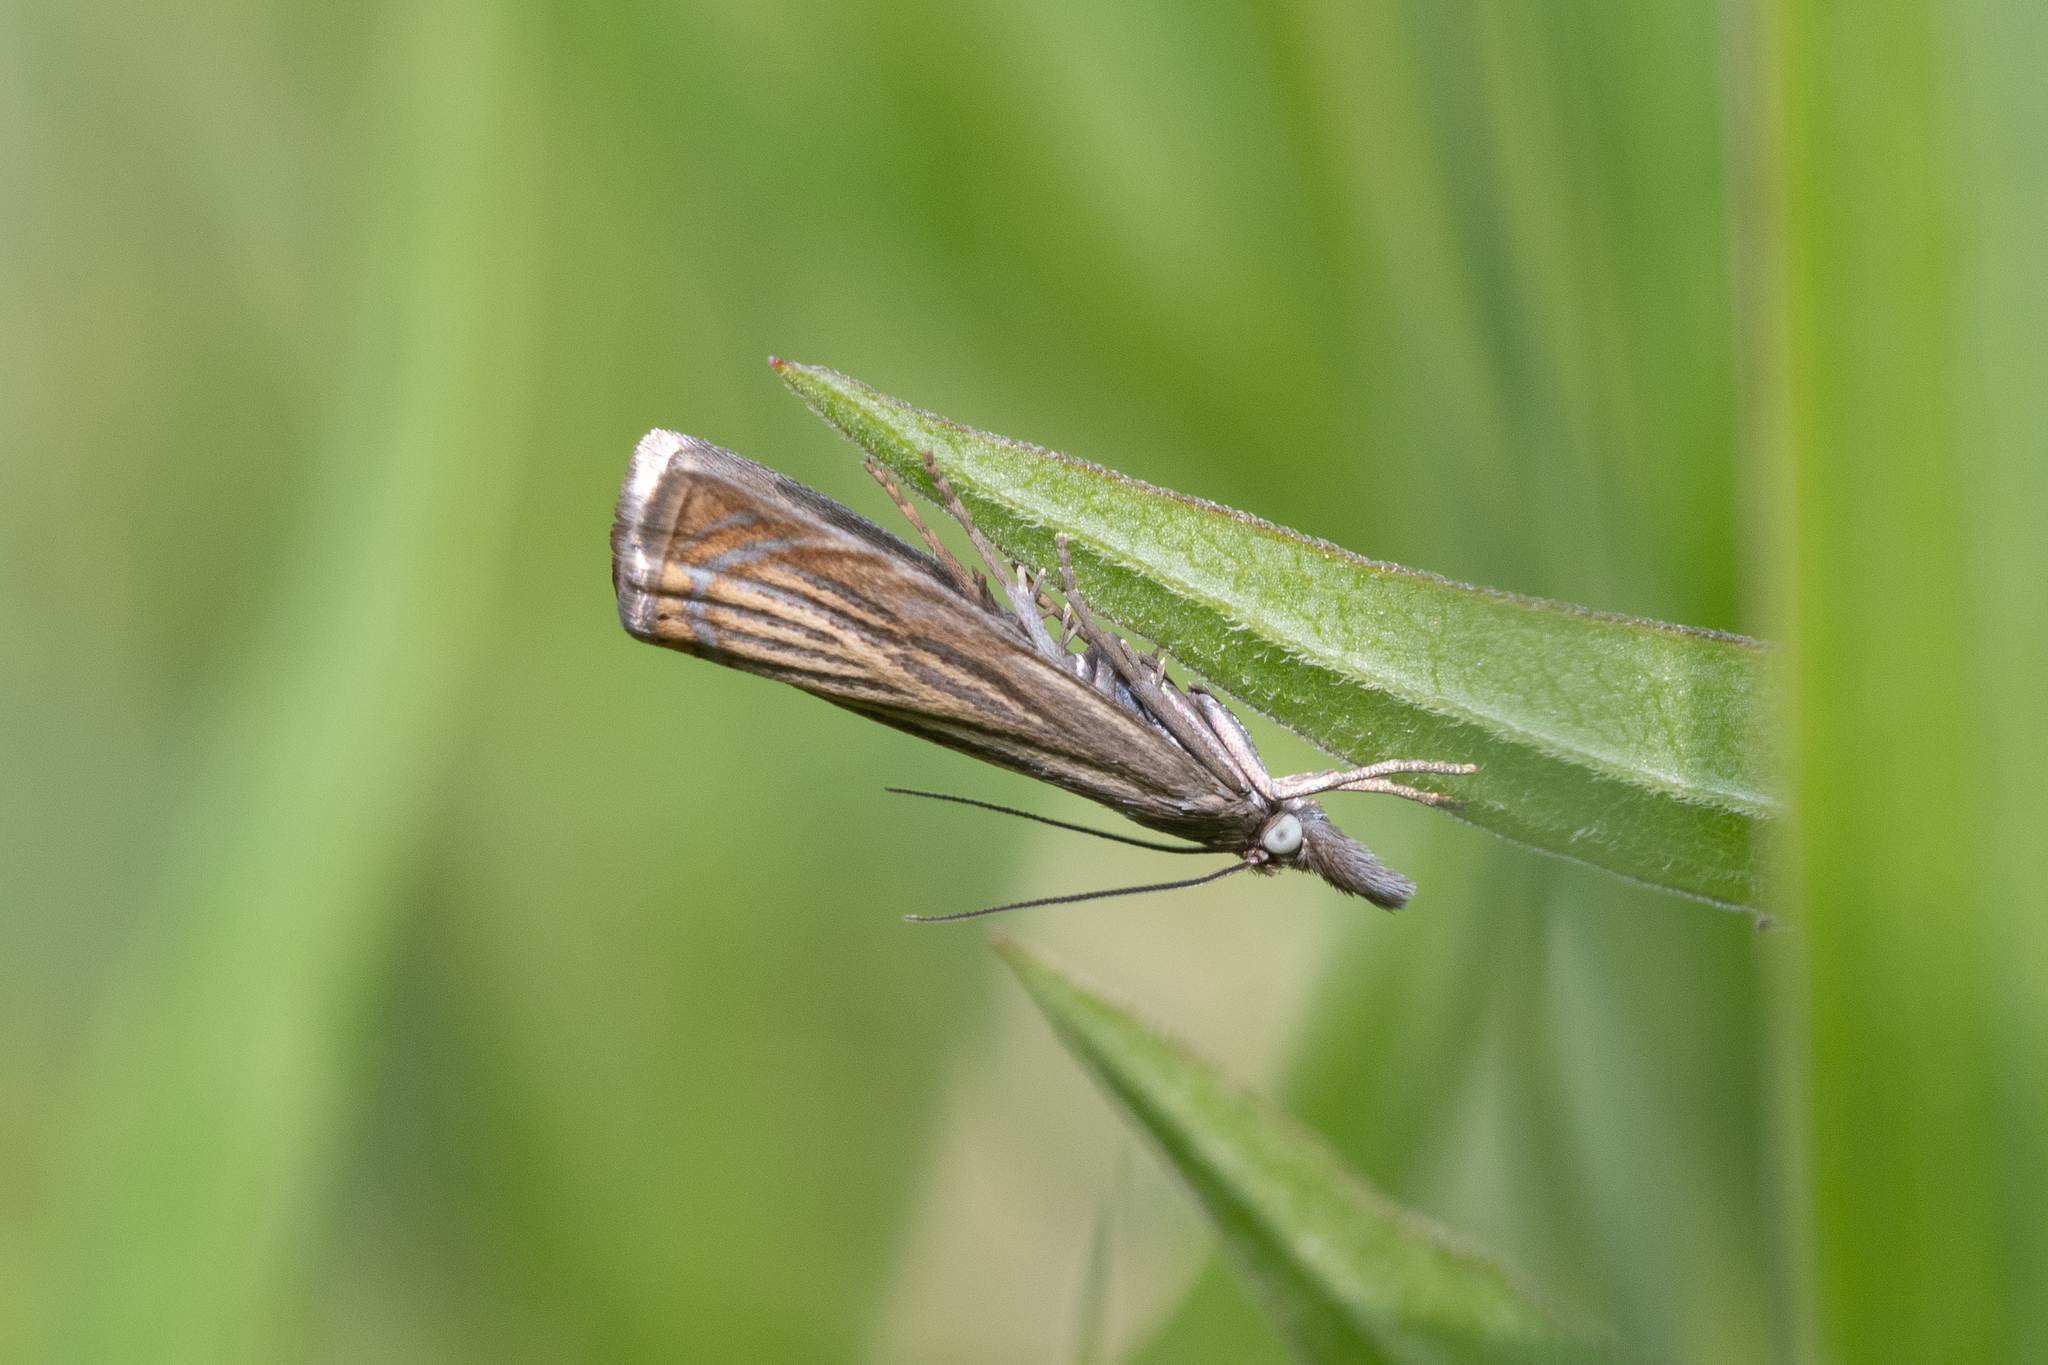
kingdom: Animalia
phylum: Arthropoda
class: Insecta
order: Lepidoptera
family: Crambidae
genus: Chrysoteuchia
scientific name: Chrysoteuchia culmella
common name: Garden grass-veneer
